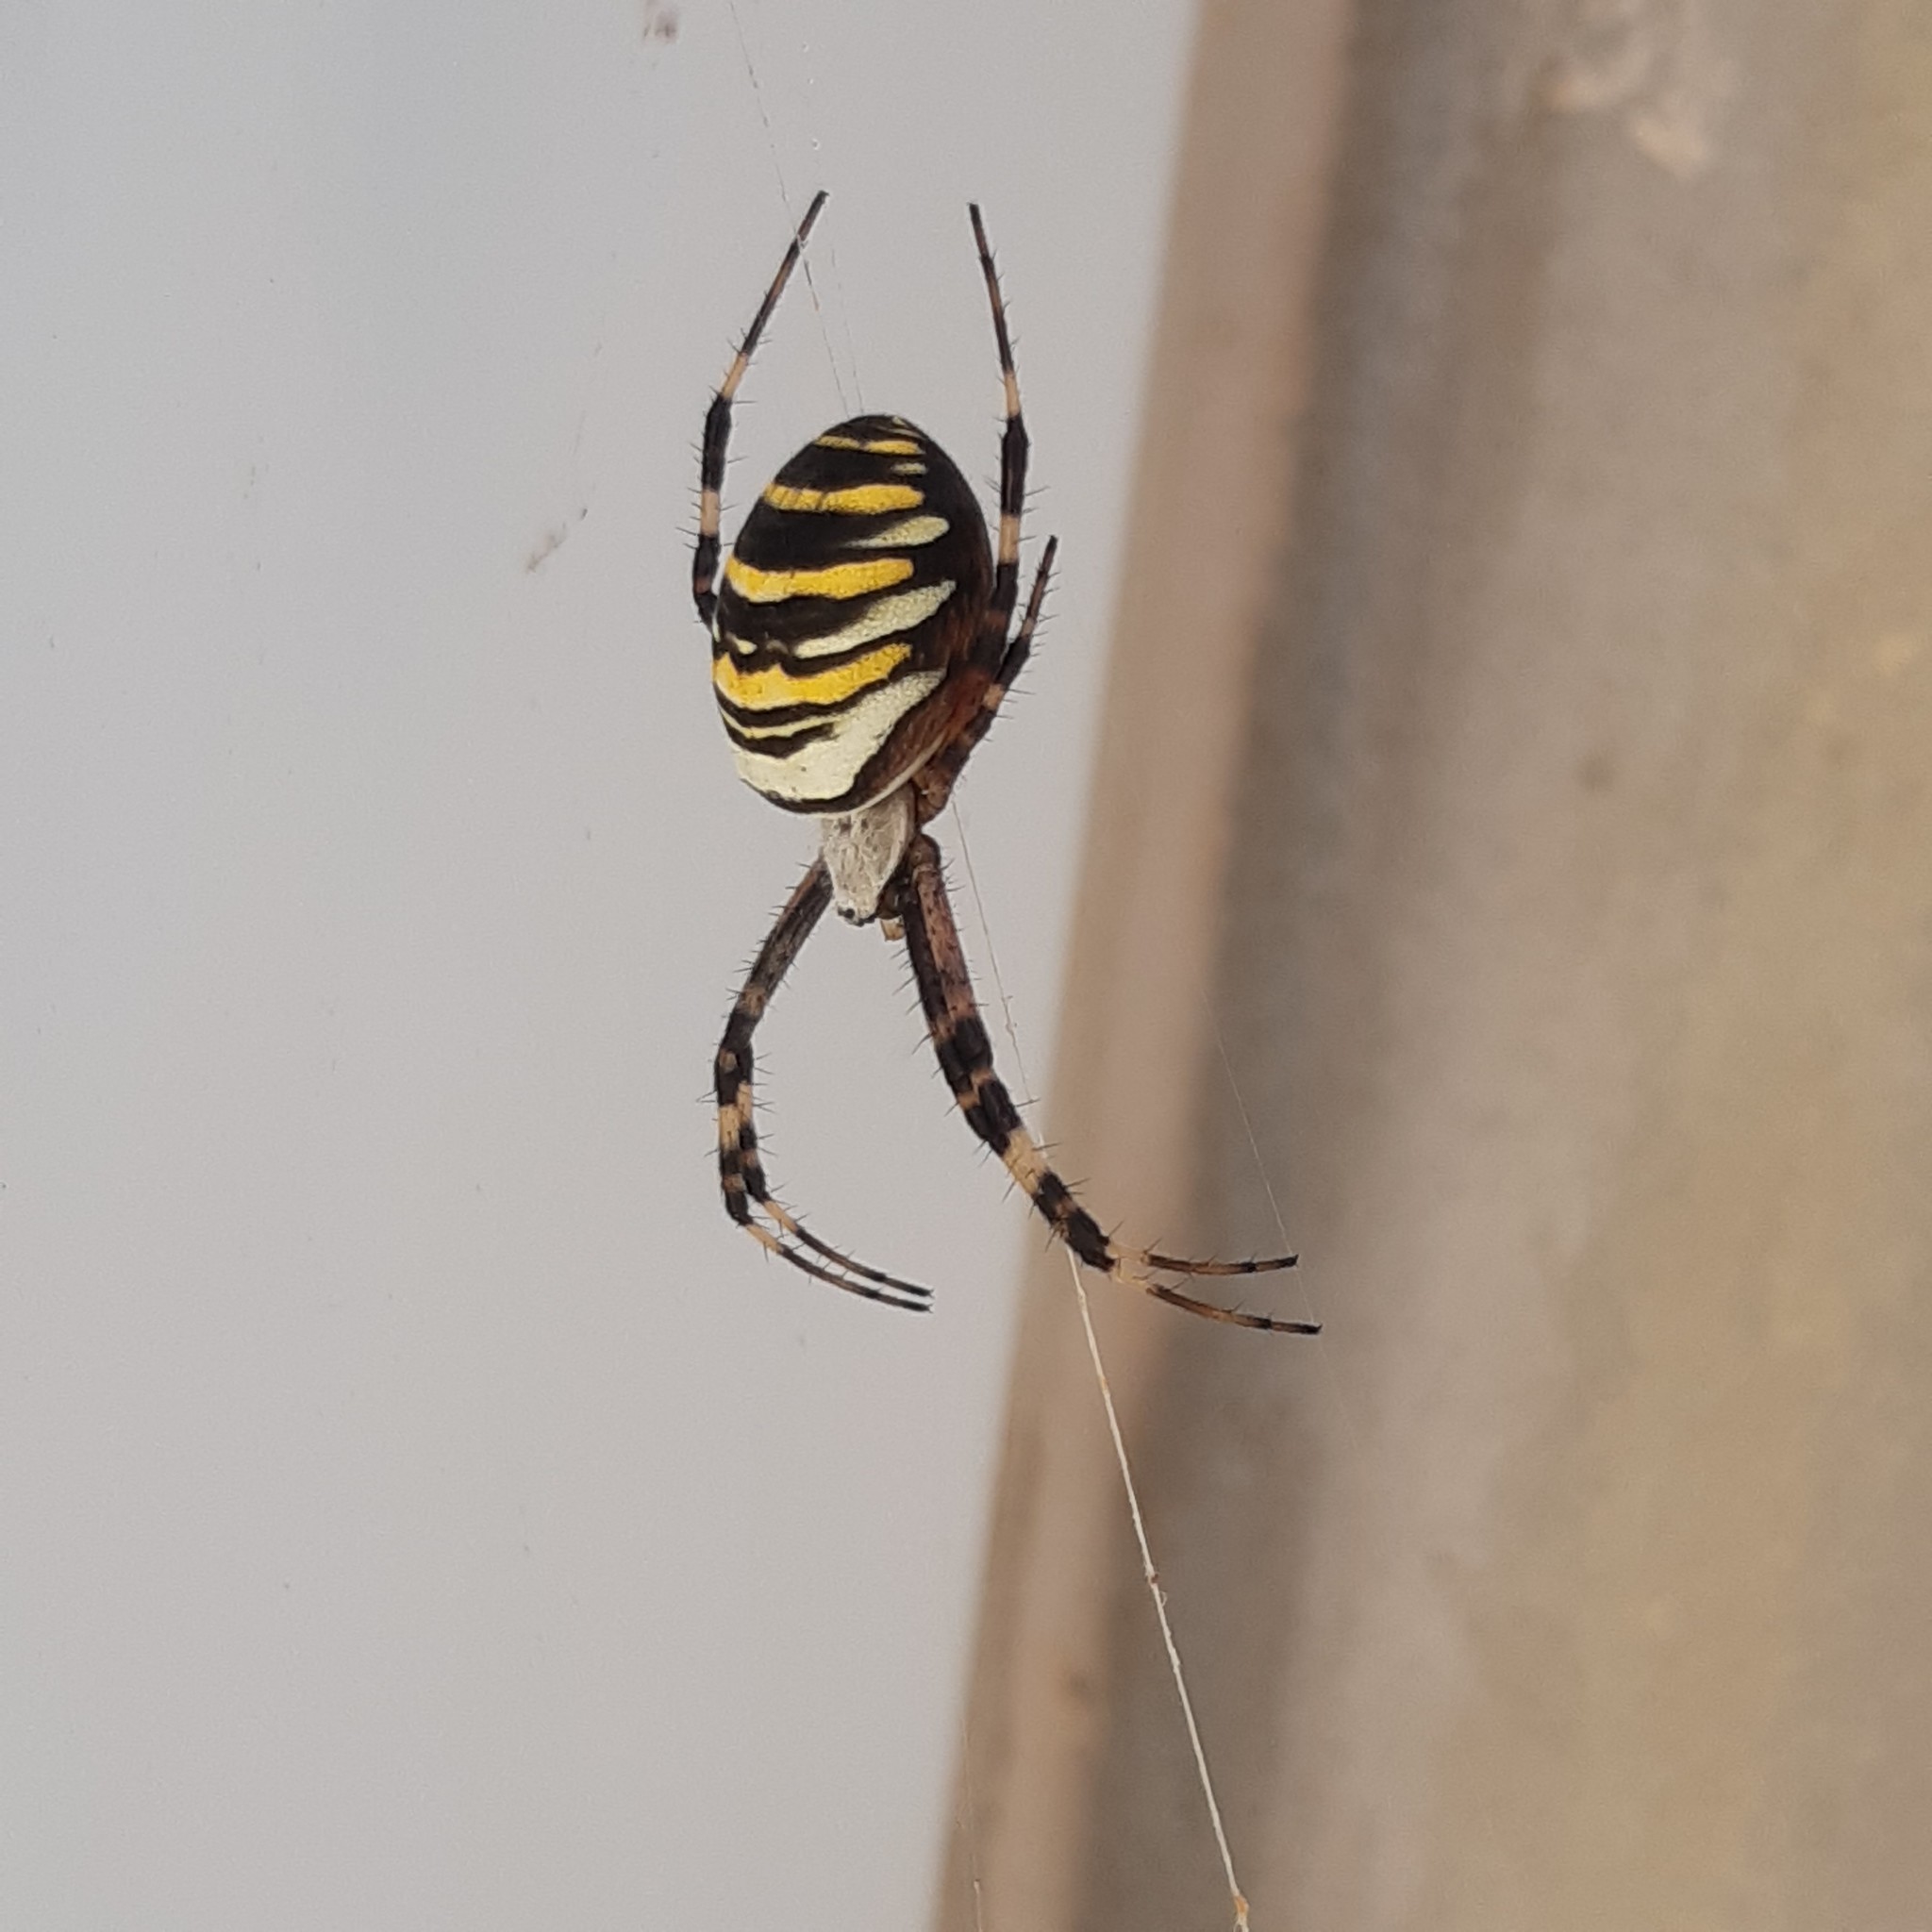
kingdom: Animalia
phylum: Arthropoda
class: Arachnida
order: Araneae
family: Araneidae
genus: Argiope
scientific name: Argiope bruennichi
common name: Wasp spider
